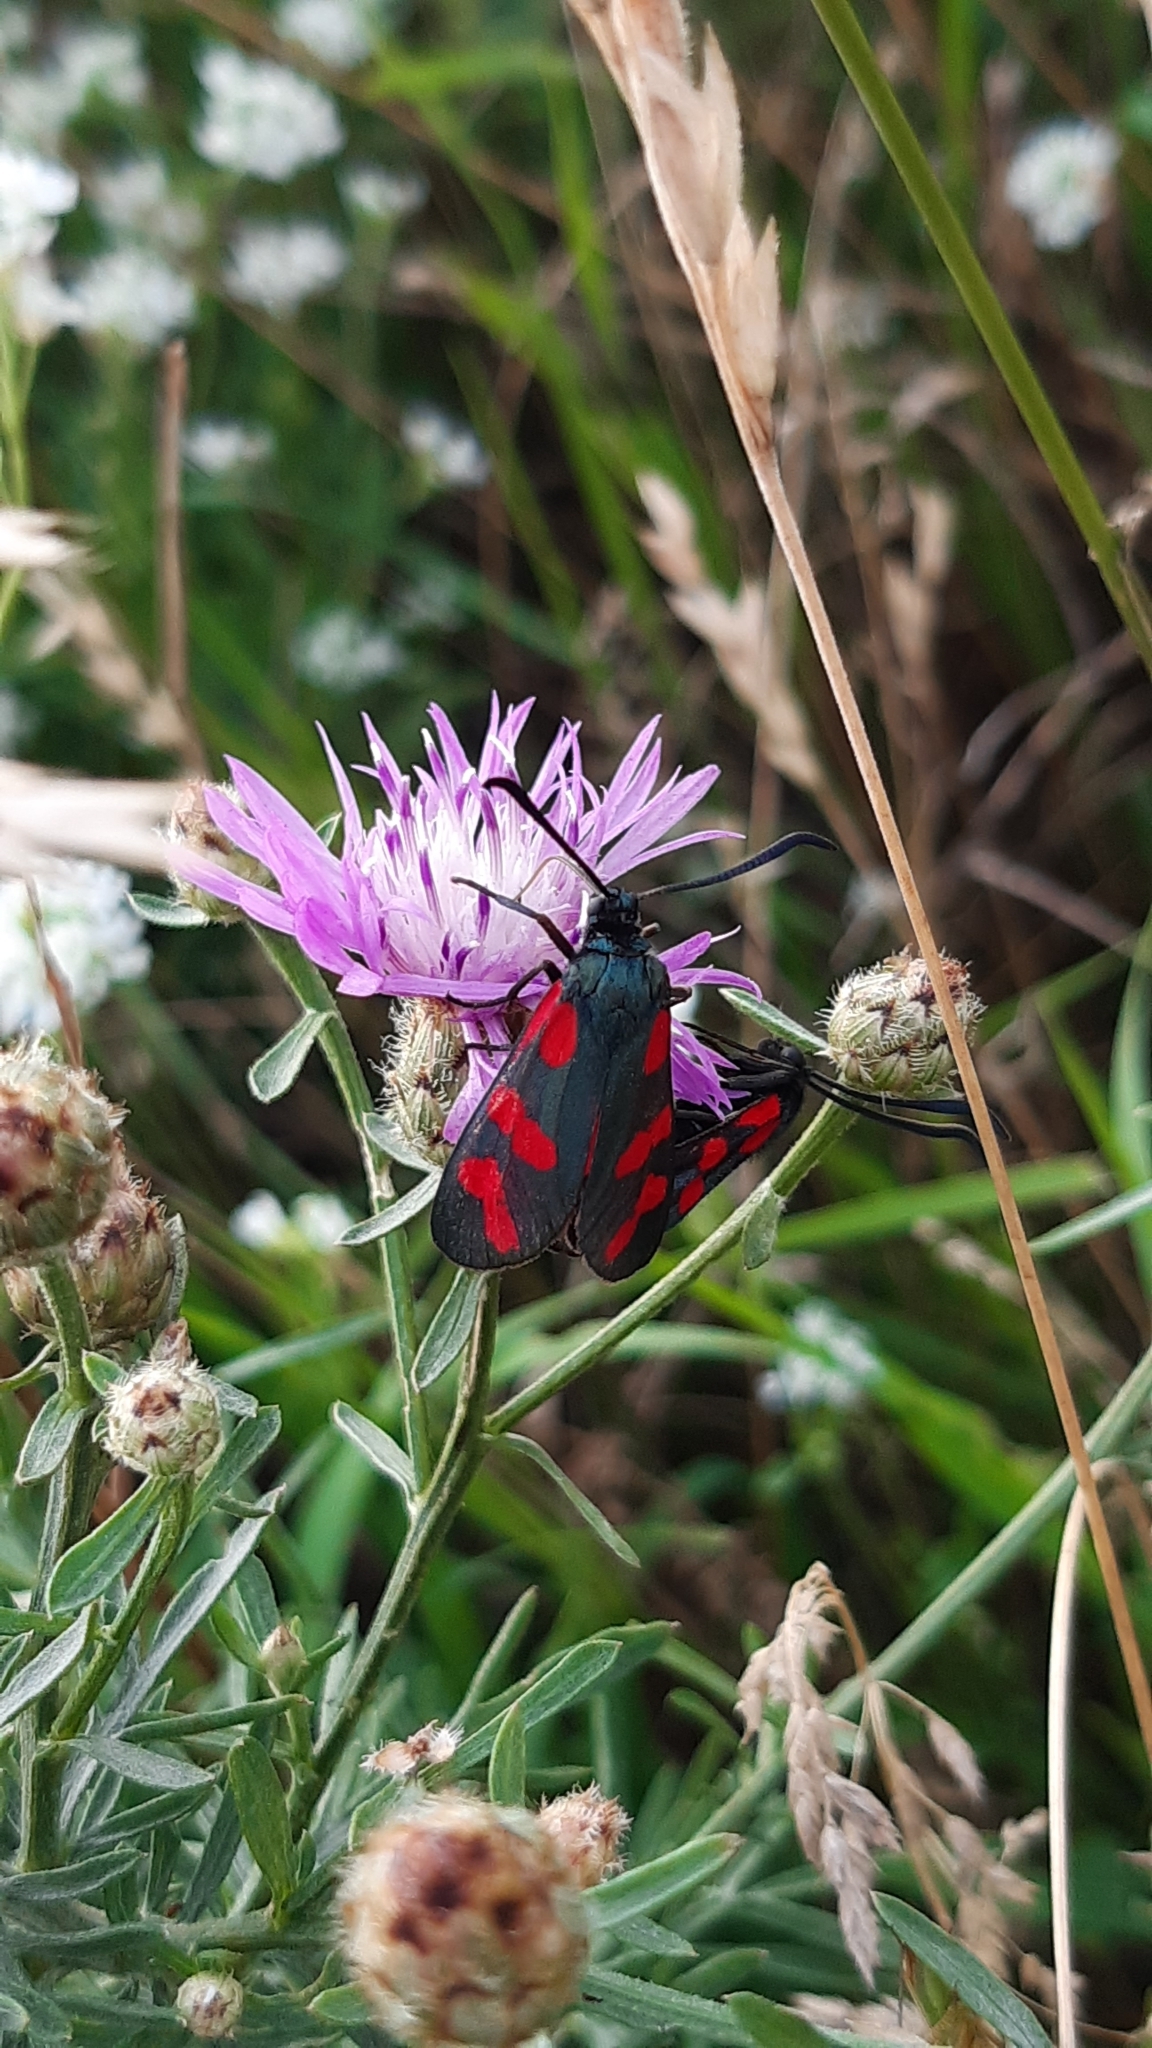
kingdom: Animalia
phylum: Arthropoda
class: Insecta
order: Lepidoptera
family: Zygaenidae
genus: Zygaena
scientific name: Zygaena filipendulae
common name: Six-spot burnet
